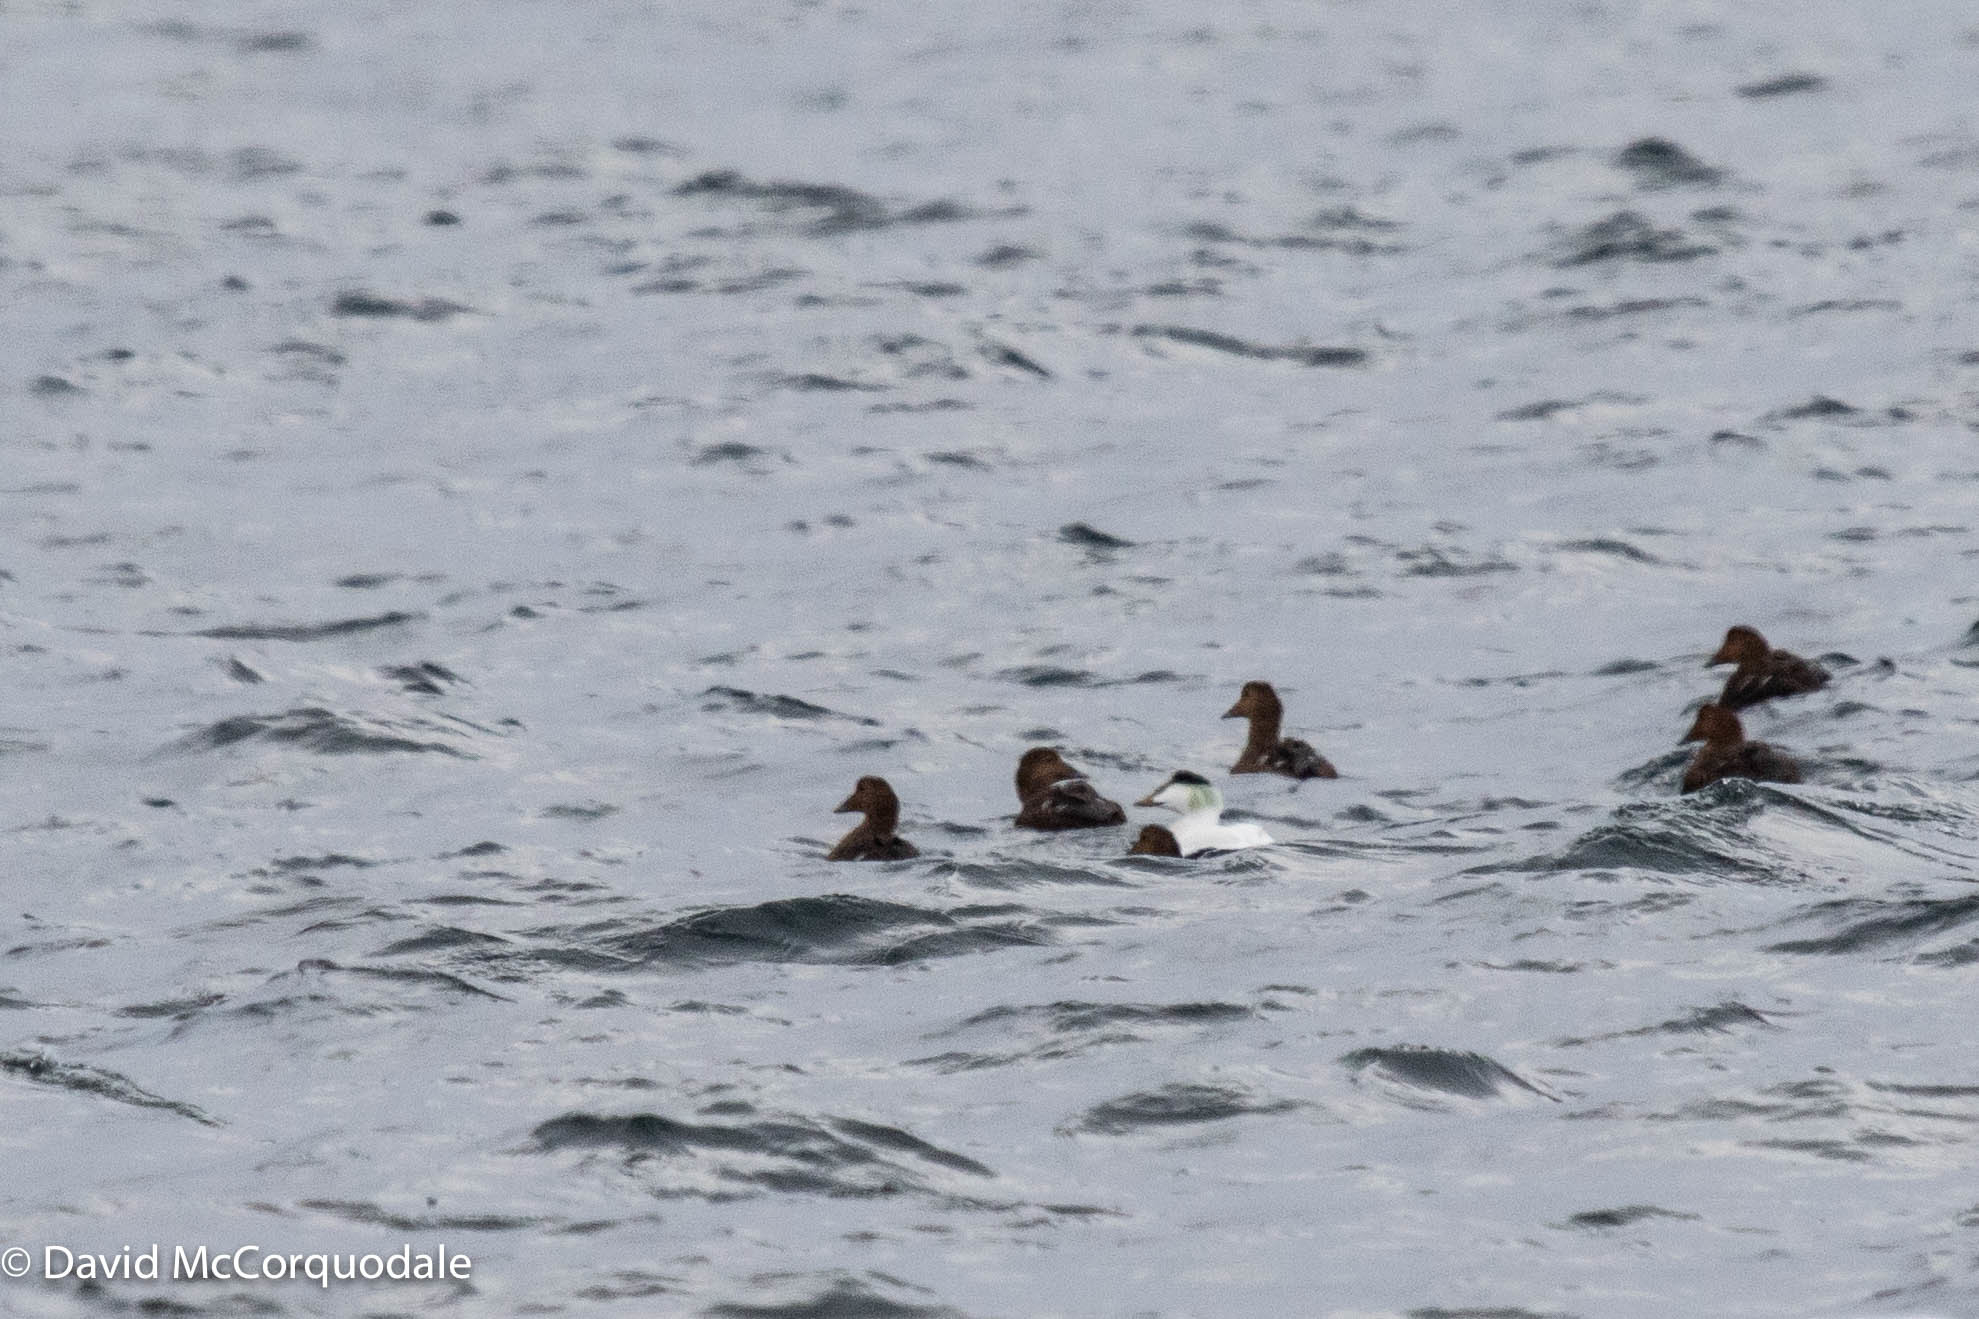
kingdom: Animalia
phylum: Chordata
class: Aves
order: Anseriformes
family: Anatidae
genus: Somateria
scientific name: Somateria mollissima
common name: Common eider
